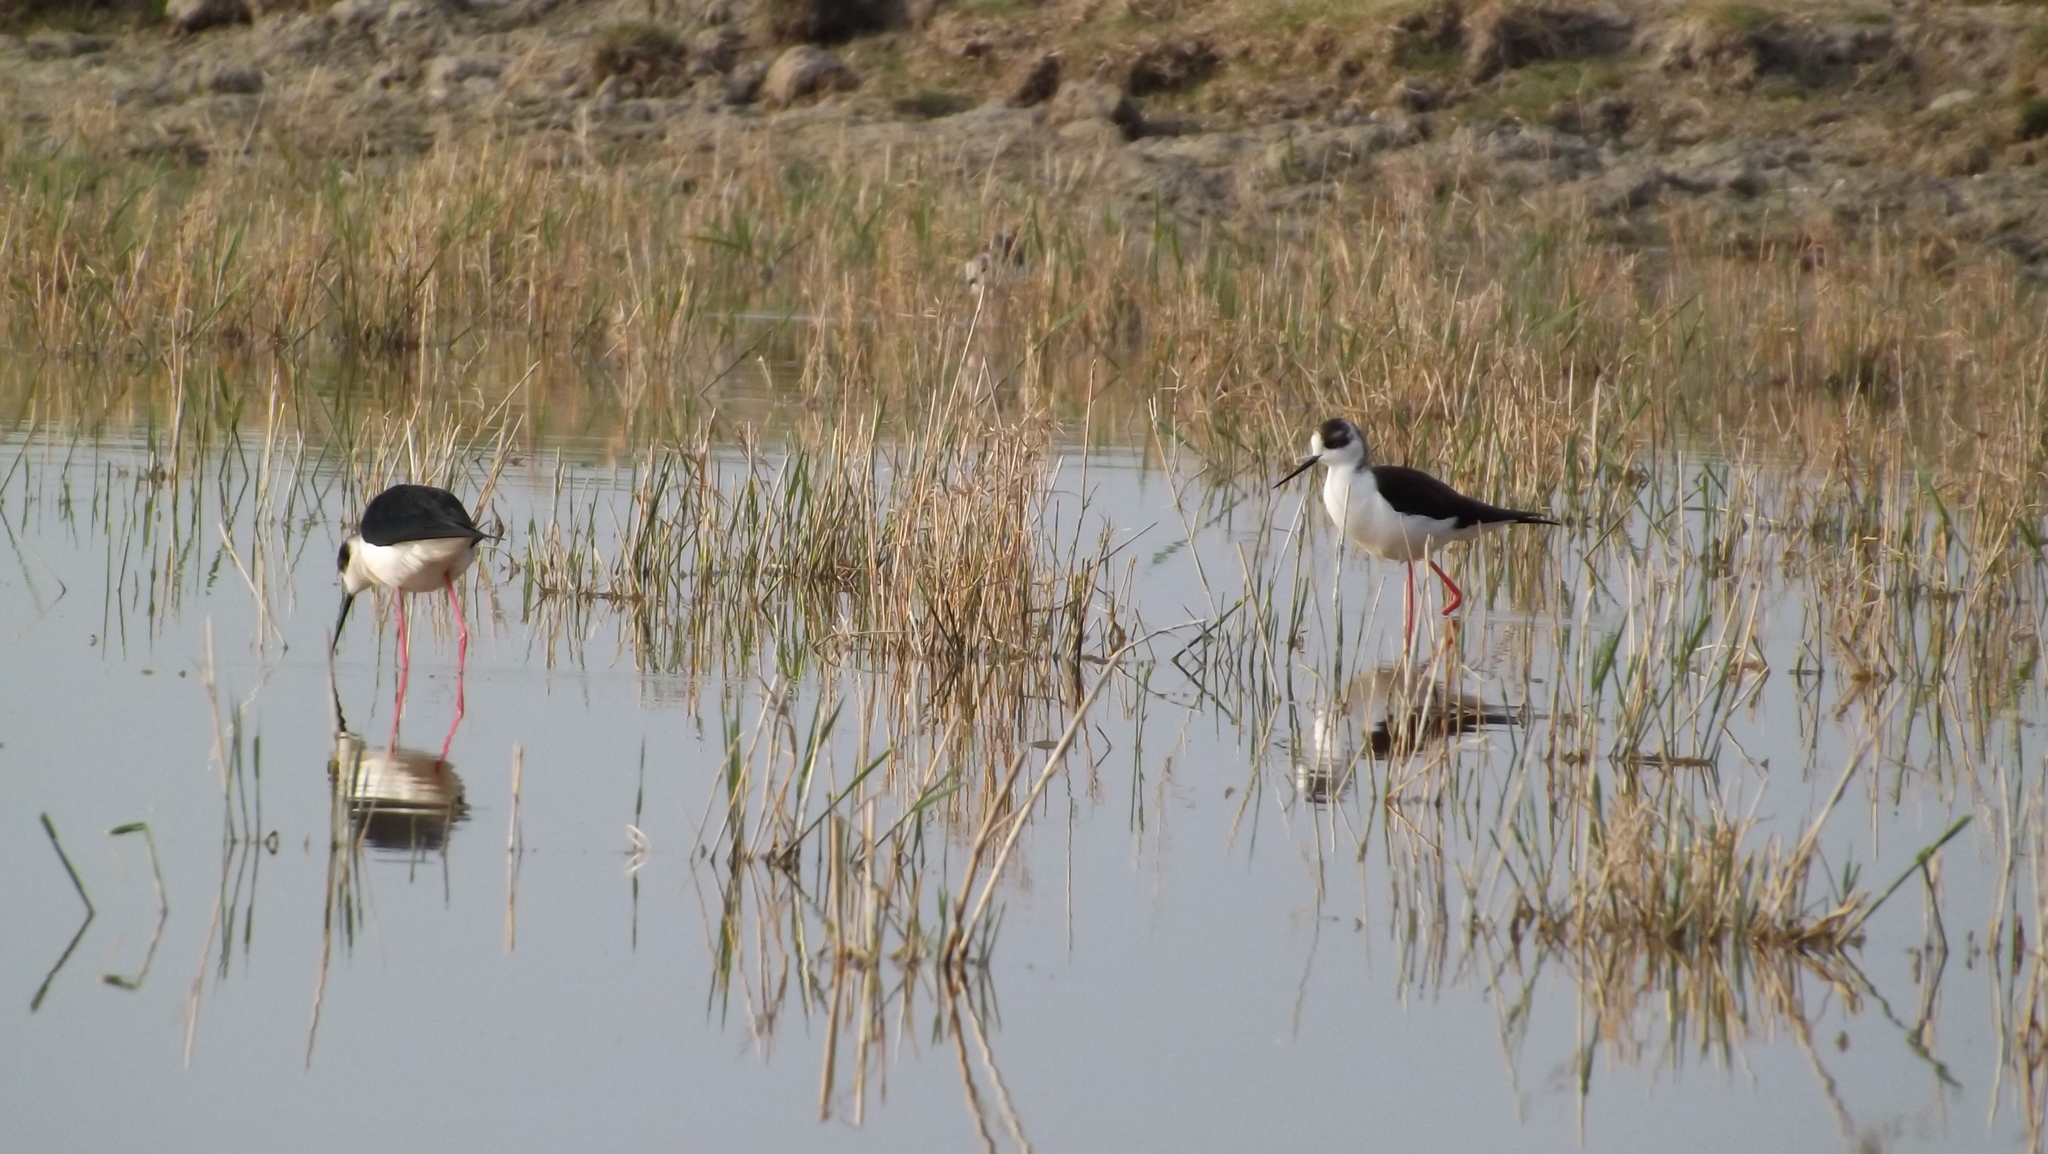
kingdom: Animalia
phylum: Chordata
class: Aves
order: Charadriiformes
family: Recurvirostridae
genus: Himantopus
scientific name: Himantopus himantopus
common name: Black-winged stilt
